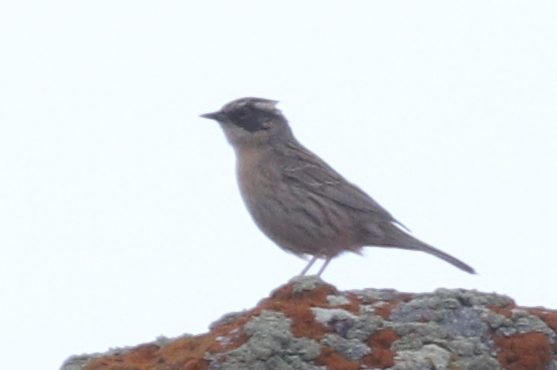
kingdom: Animalia
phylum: Chordata
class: Aves
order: Passeriformes
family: Prunellidae
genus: Prunella
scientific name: Prunella ocularis
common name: Radde's accentor
